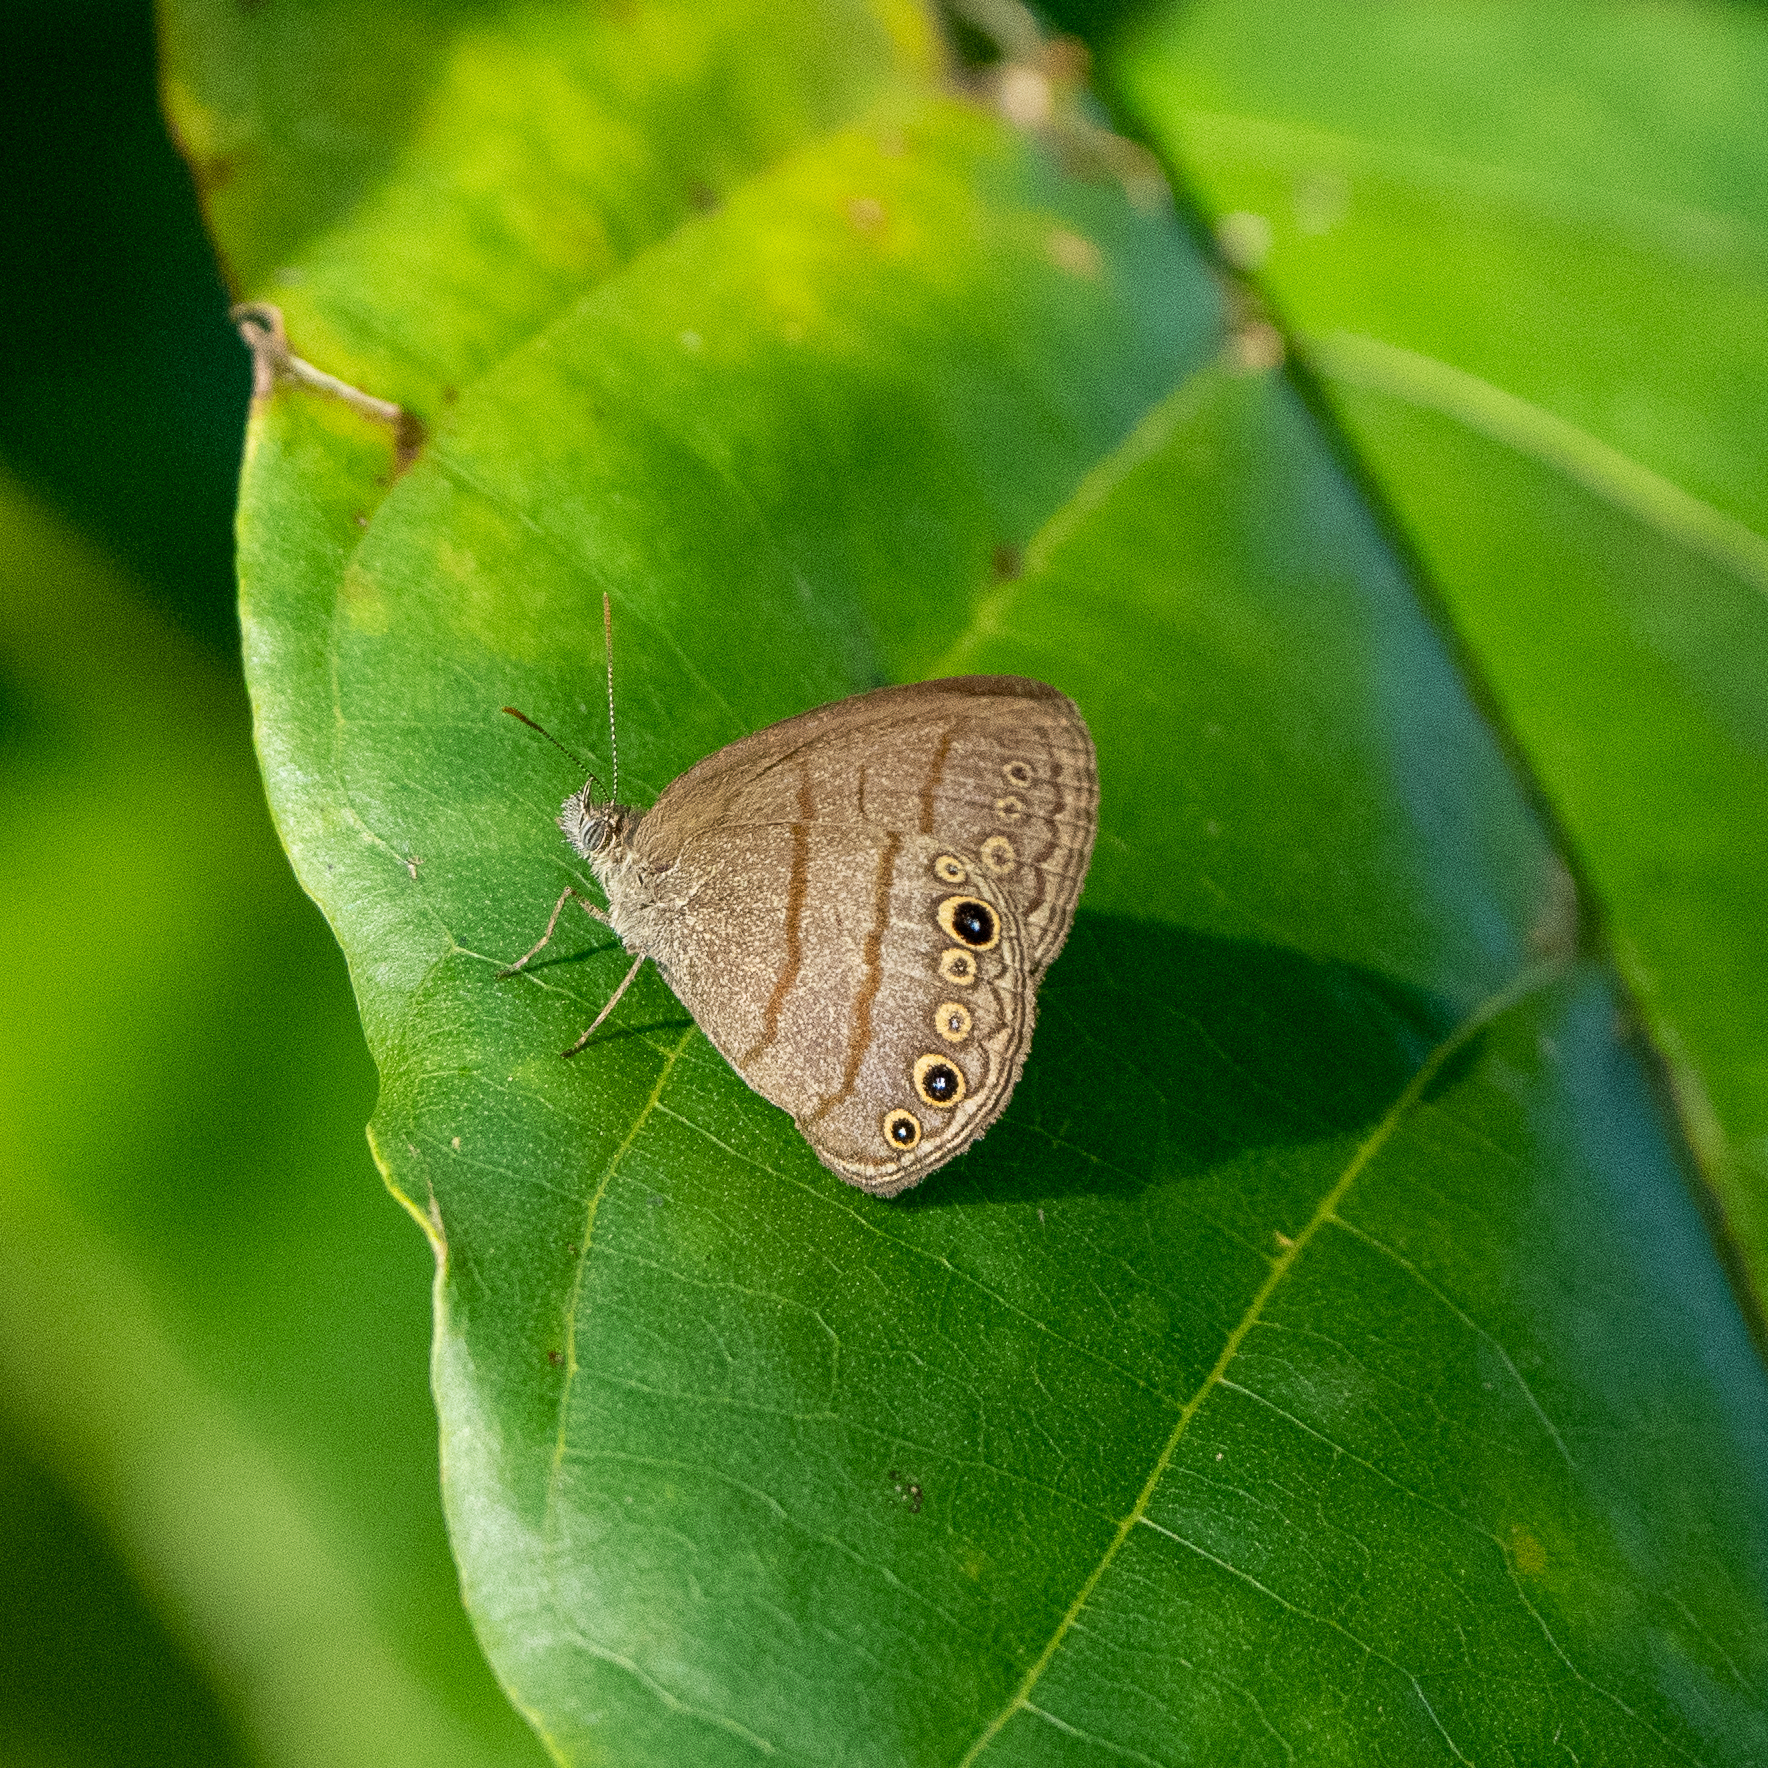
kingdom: Animalia
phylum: Arthropoda
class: Insecta
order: Lepidoptera
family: Nymphalidae
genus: Hermeuptychia
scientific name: Hermeuptychia hermes
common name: Hermes satyr
